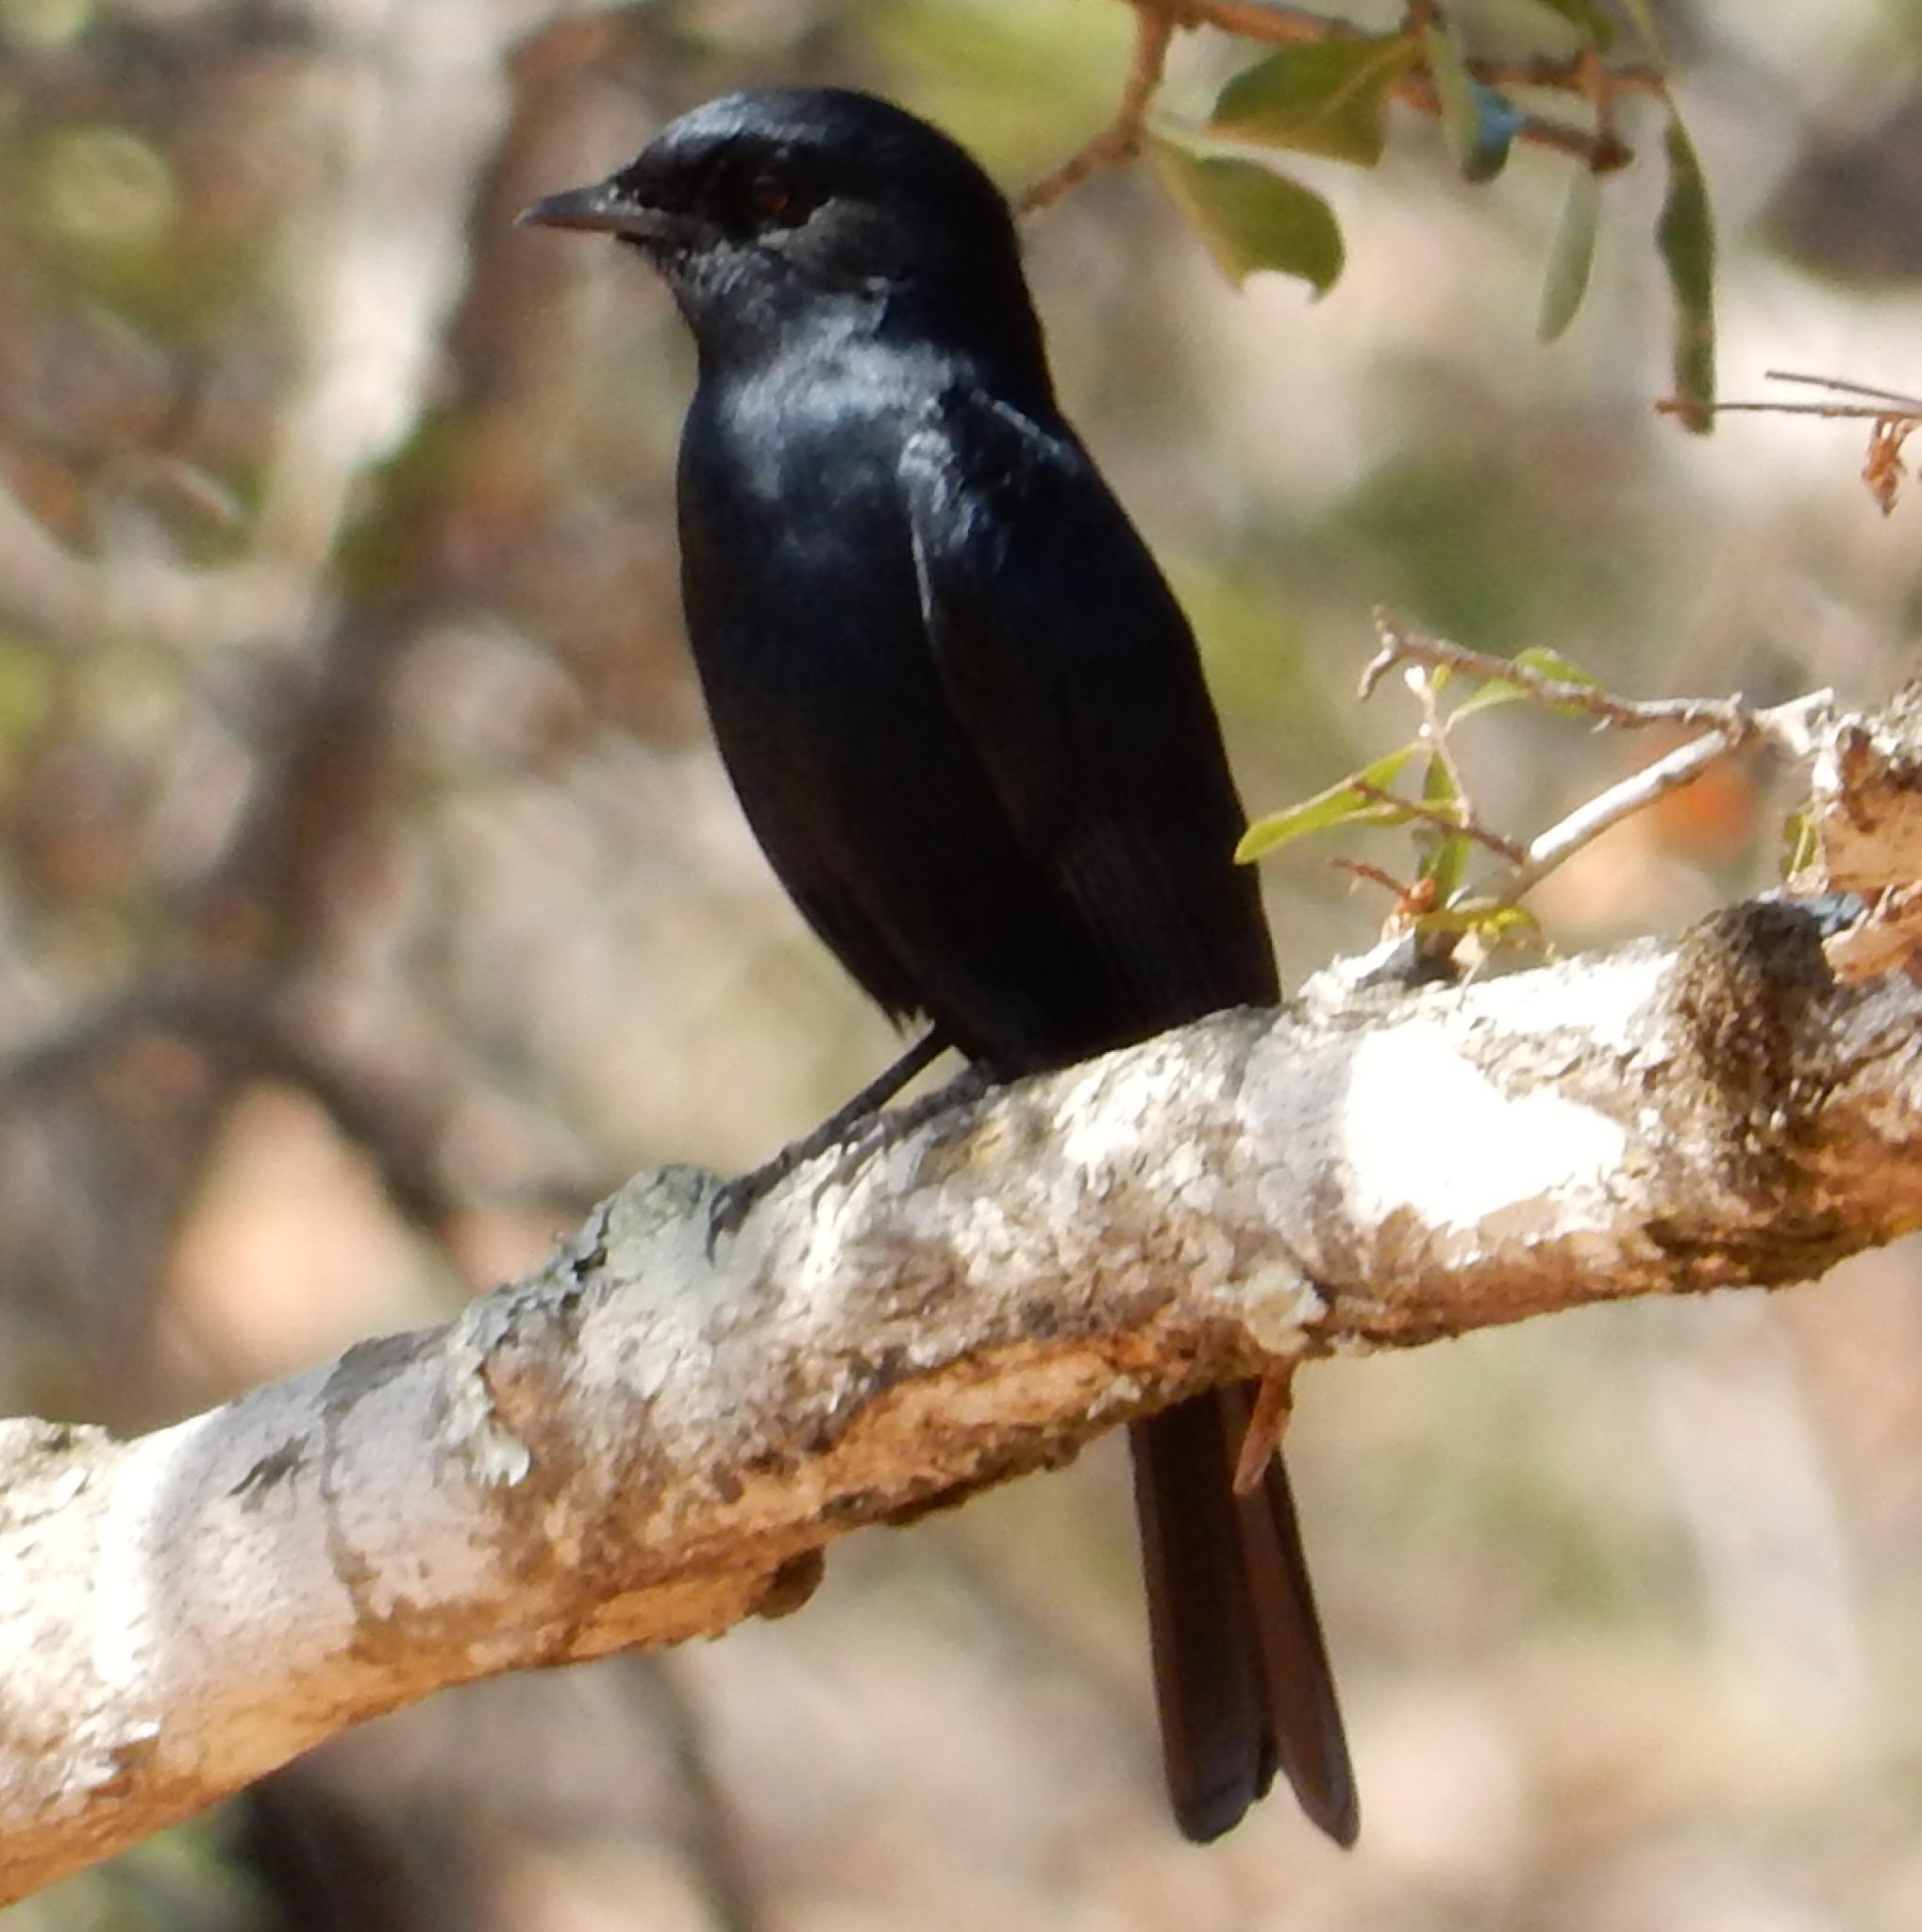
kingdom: Animalia
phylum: Chordata
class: Aves
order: Passeriformes
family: Muscicapidae
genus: Melaenornis
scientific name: Melaenornis pammelaina
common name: Southern black flycatcher
